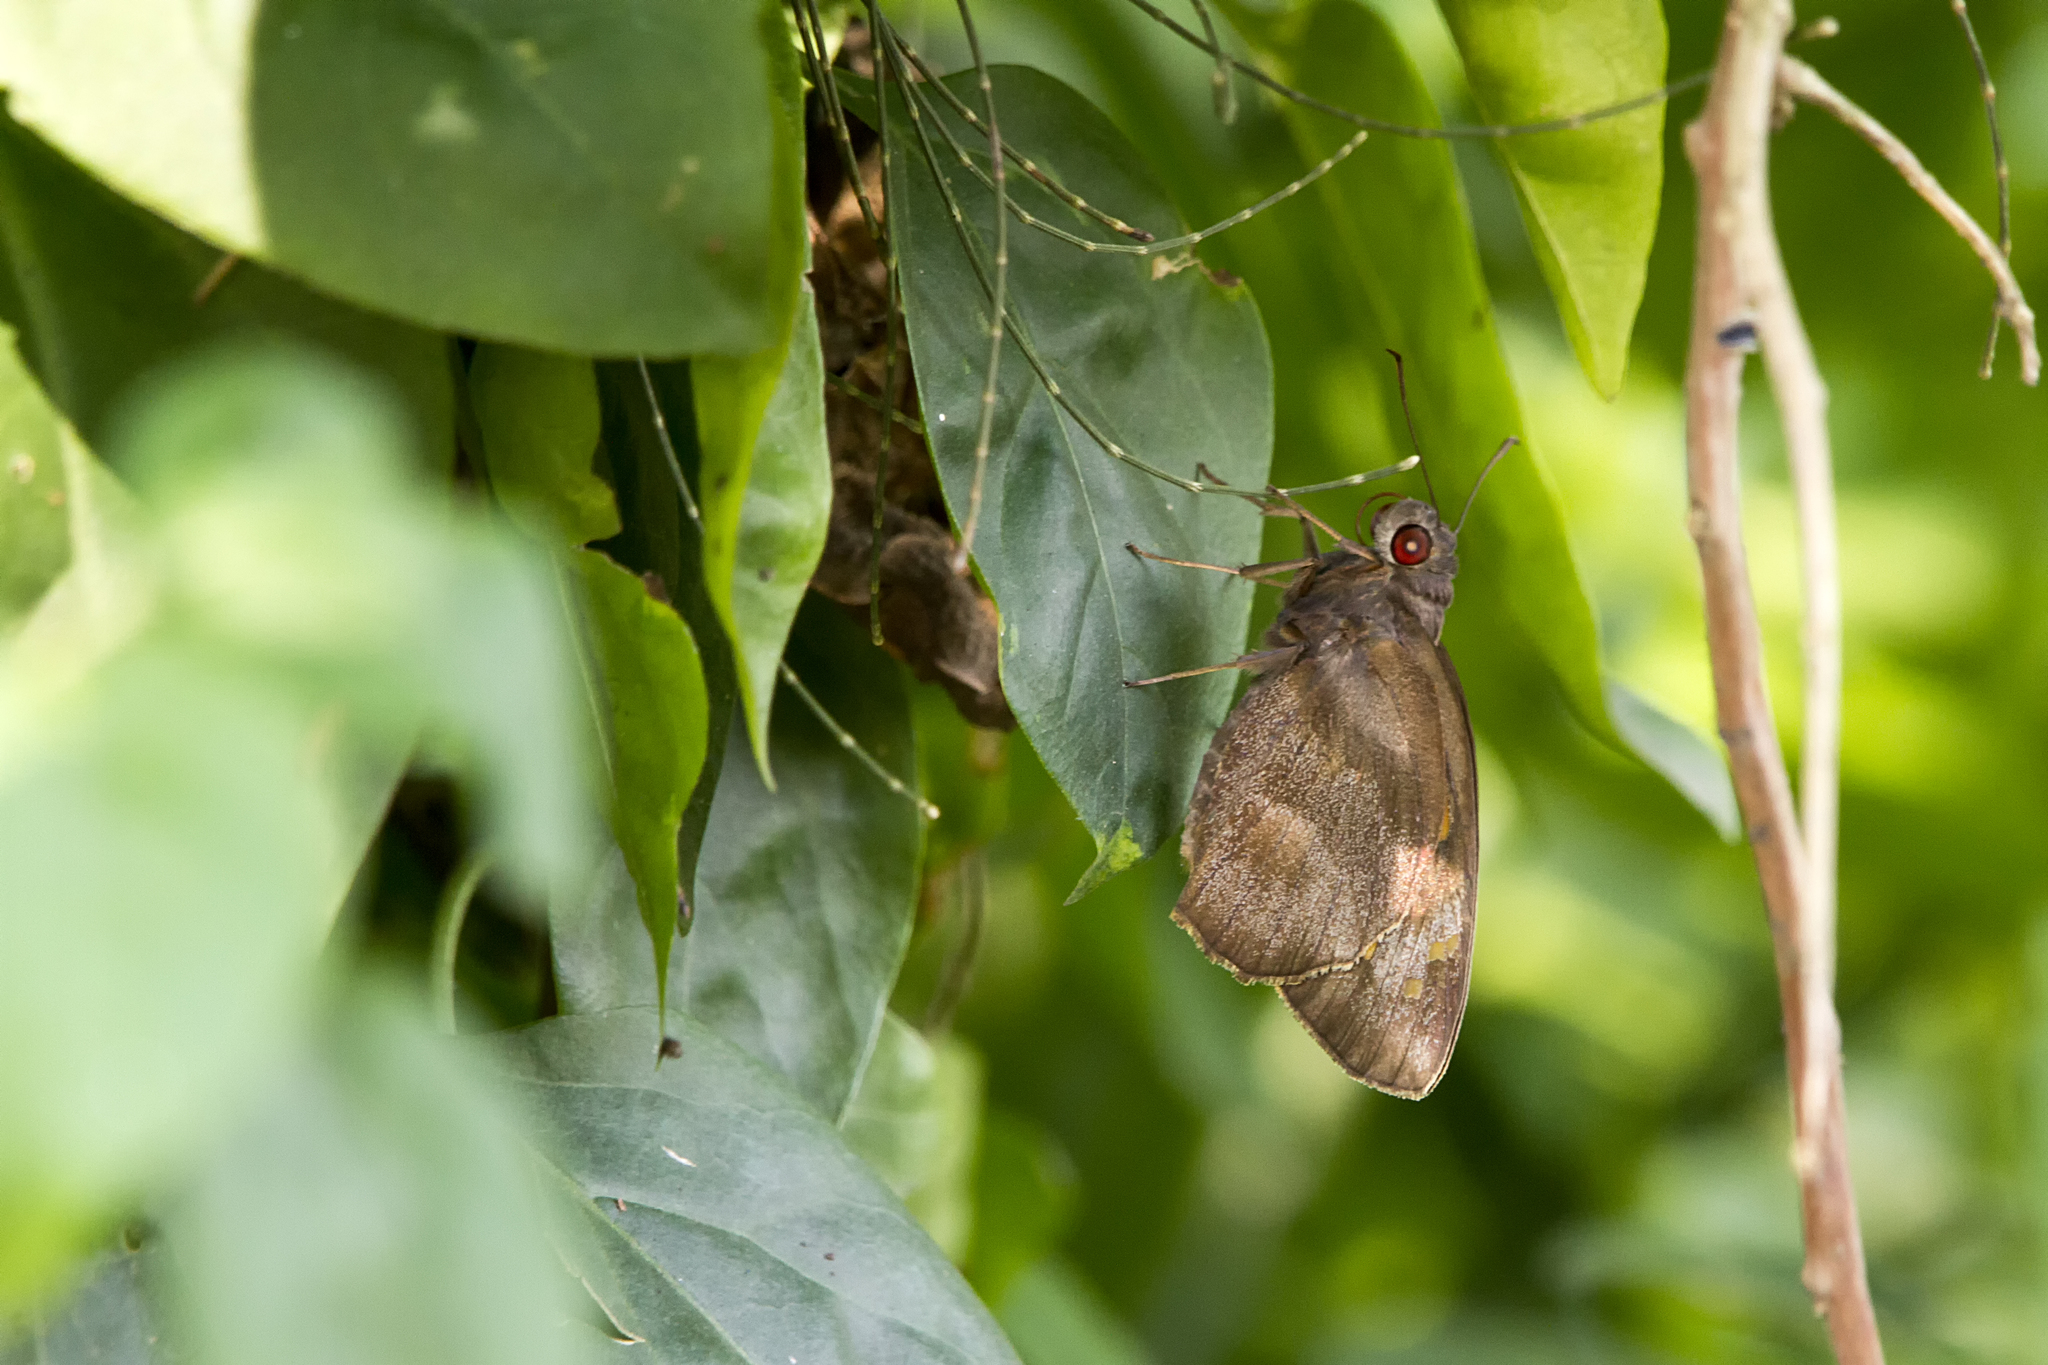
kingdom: Animalia
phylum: Arthropoda
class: Insecta
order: Lepidoptera
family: Hesperiidae
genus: Gangara
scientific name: Gangara thyrsis
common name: Giant redeye
